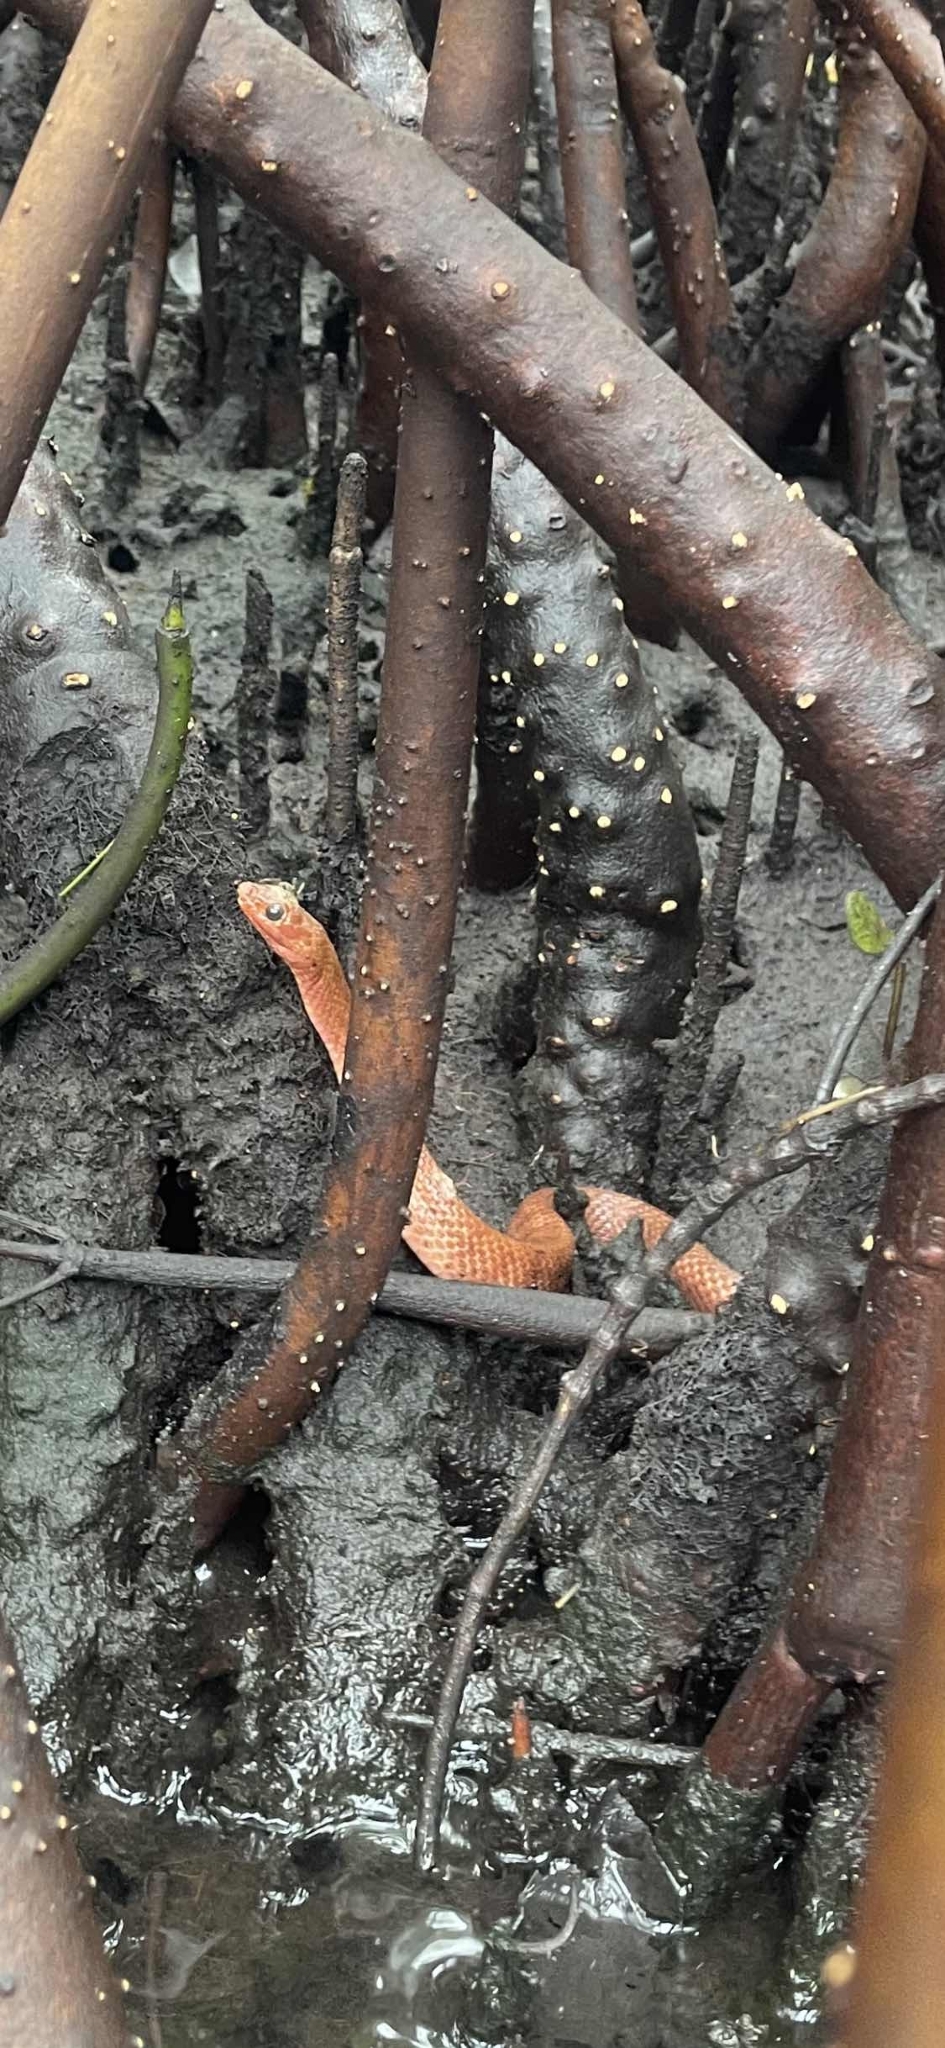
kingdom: Animalia
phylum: Chordata
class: Squamata
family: Colubridae
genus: Nerodia
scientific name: Nerodia clarkii
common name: Atlantic saltmarsh snake
